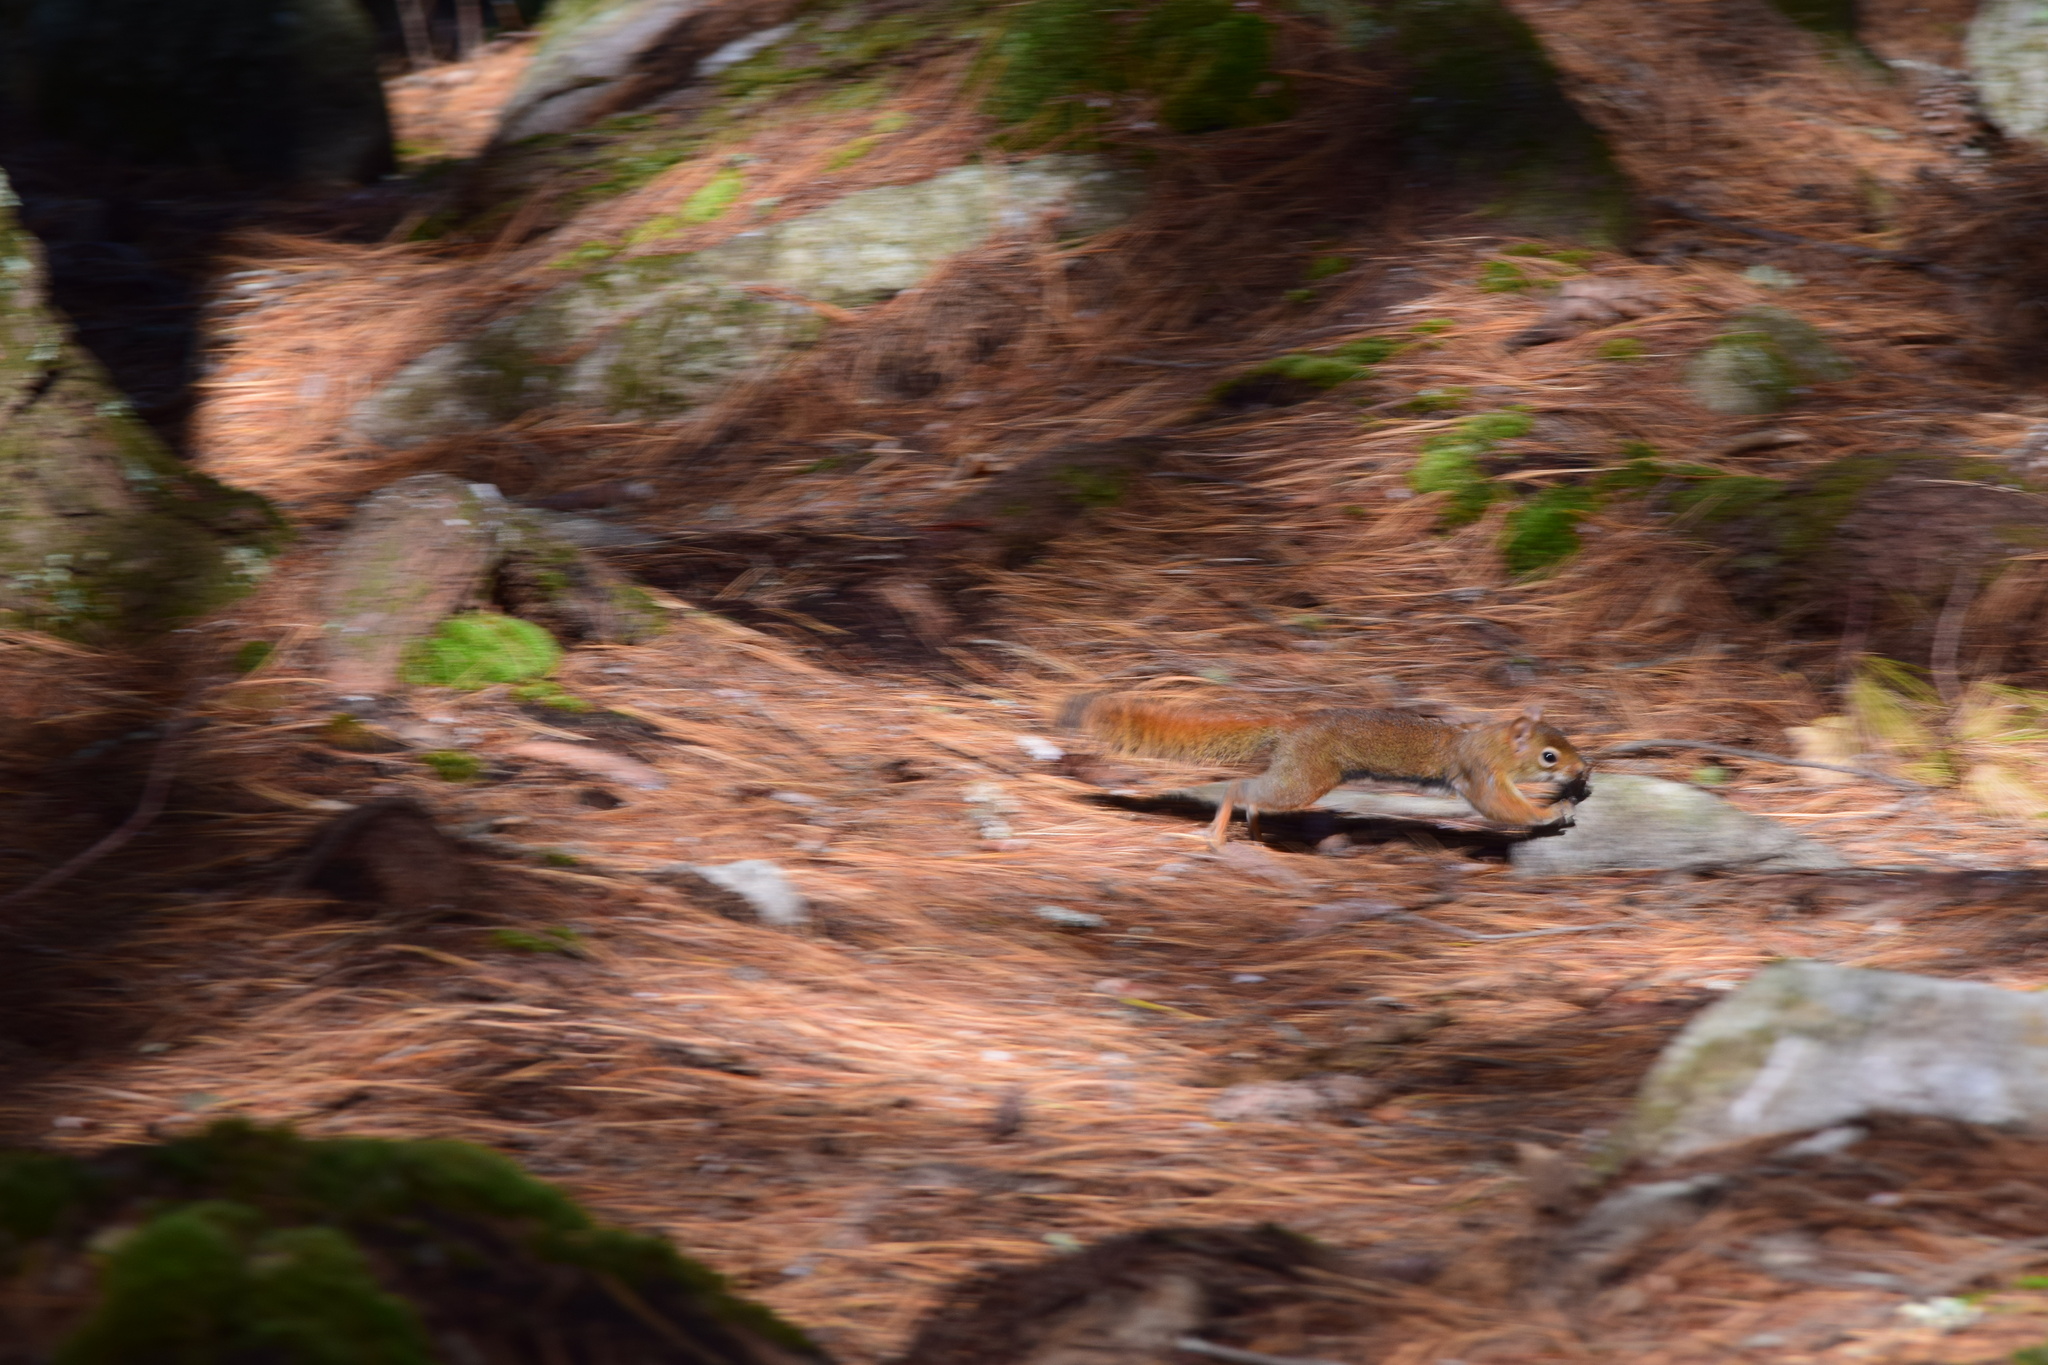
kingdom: Animalia
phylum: Chordata
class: Mammalia
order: Rodentia
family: Sciuridae
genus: Tamiasciurus
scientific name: Tamiasciurus hudsonicus
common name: Red squirrel
